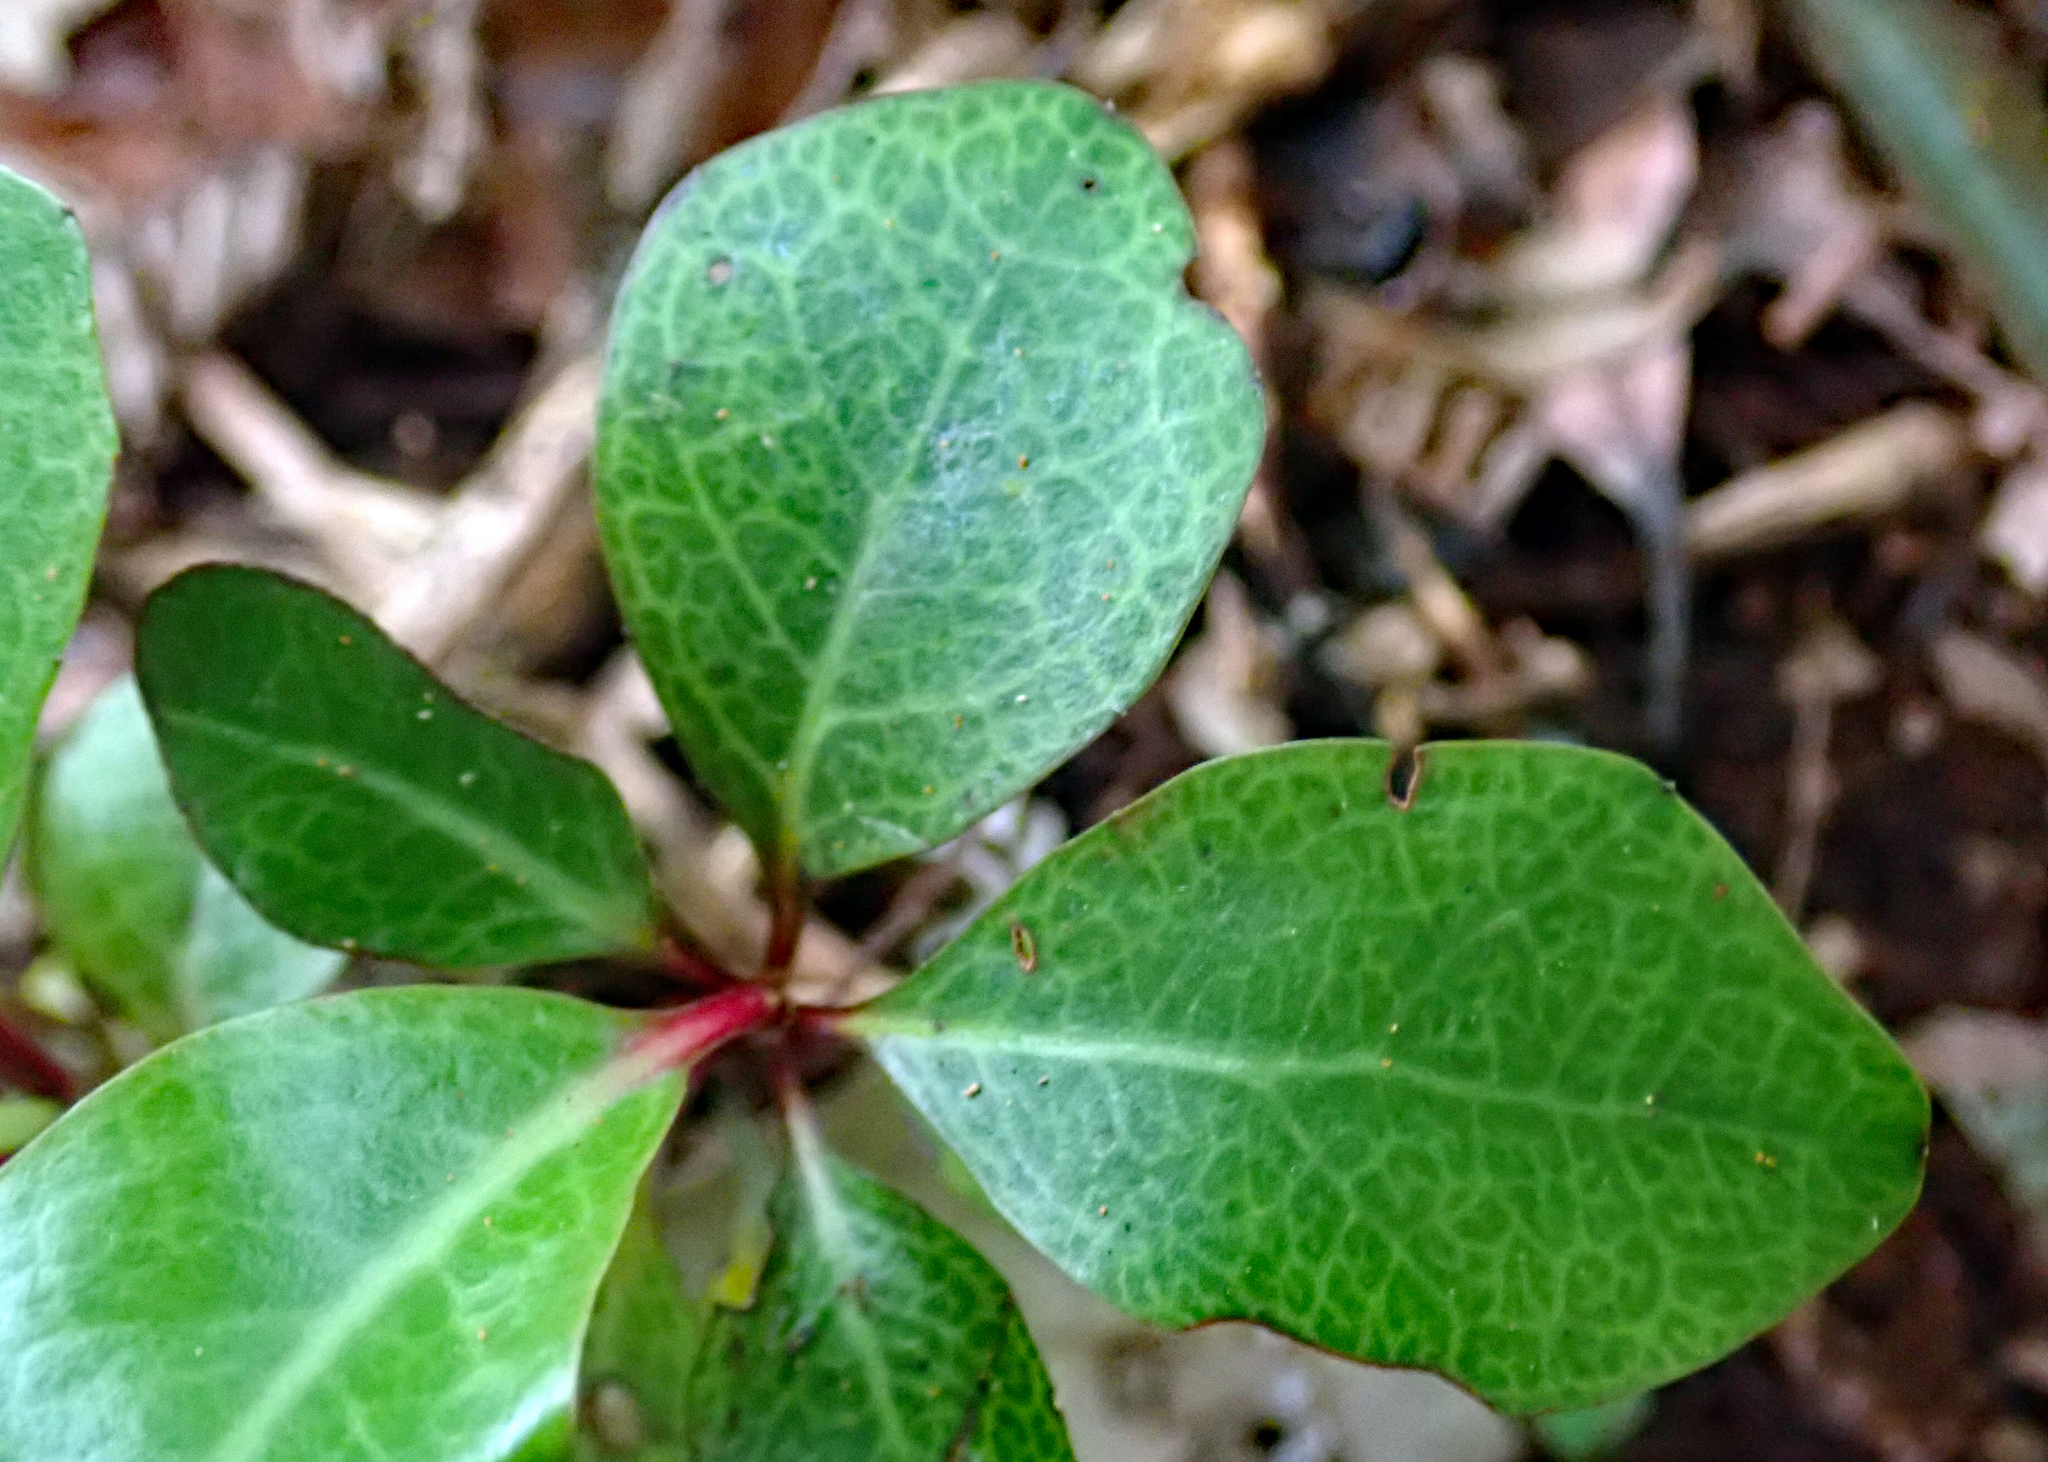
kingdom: Plantae
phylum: Tracheophyta
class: Magnoliopsida
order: Asterales
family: Alseuosmiaceae
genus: Alseuosmia
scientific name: Alseuosmia quercifolia
